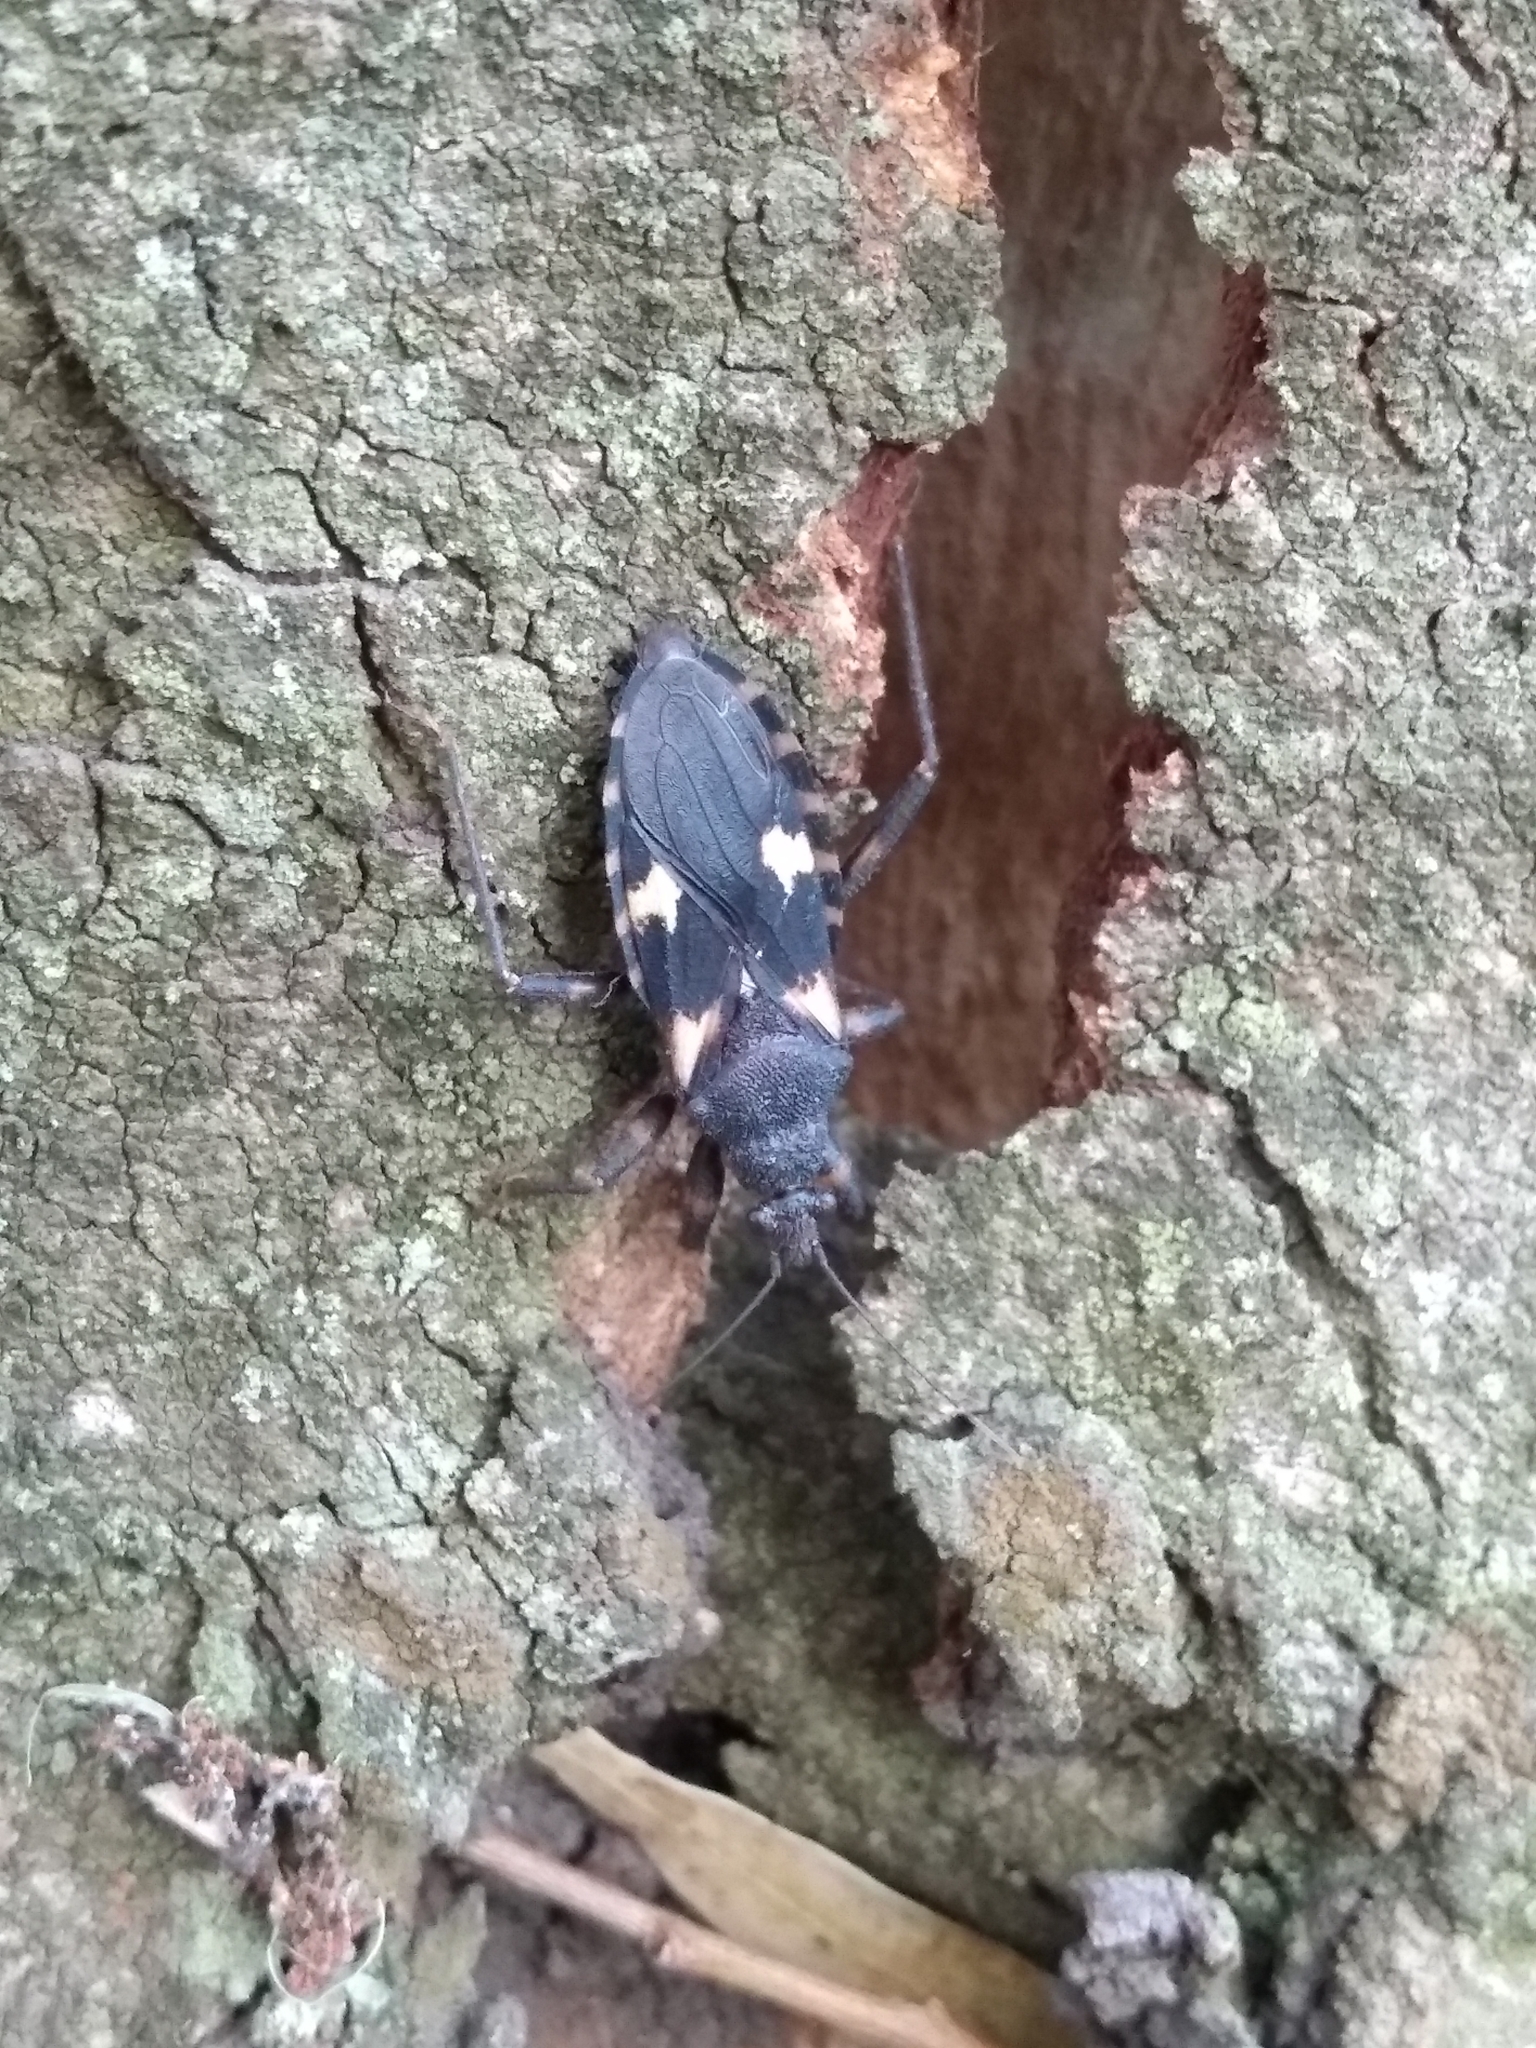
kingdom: Animalia
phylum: Arthropoda
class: Insecta
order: Hemiptera
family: Reduviidae
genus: Microtomus
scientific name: Microtomus reuteri
